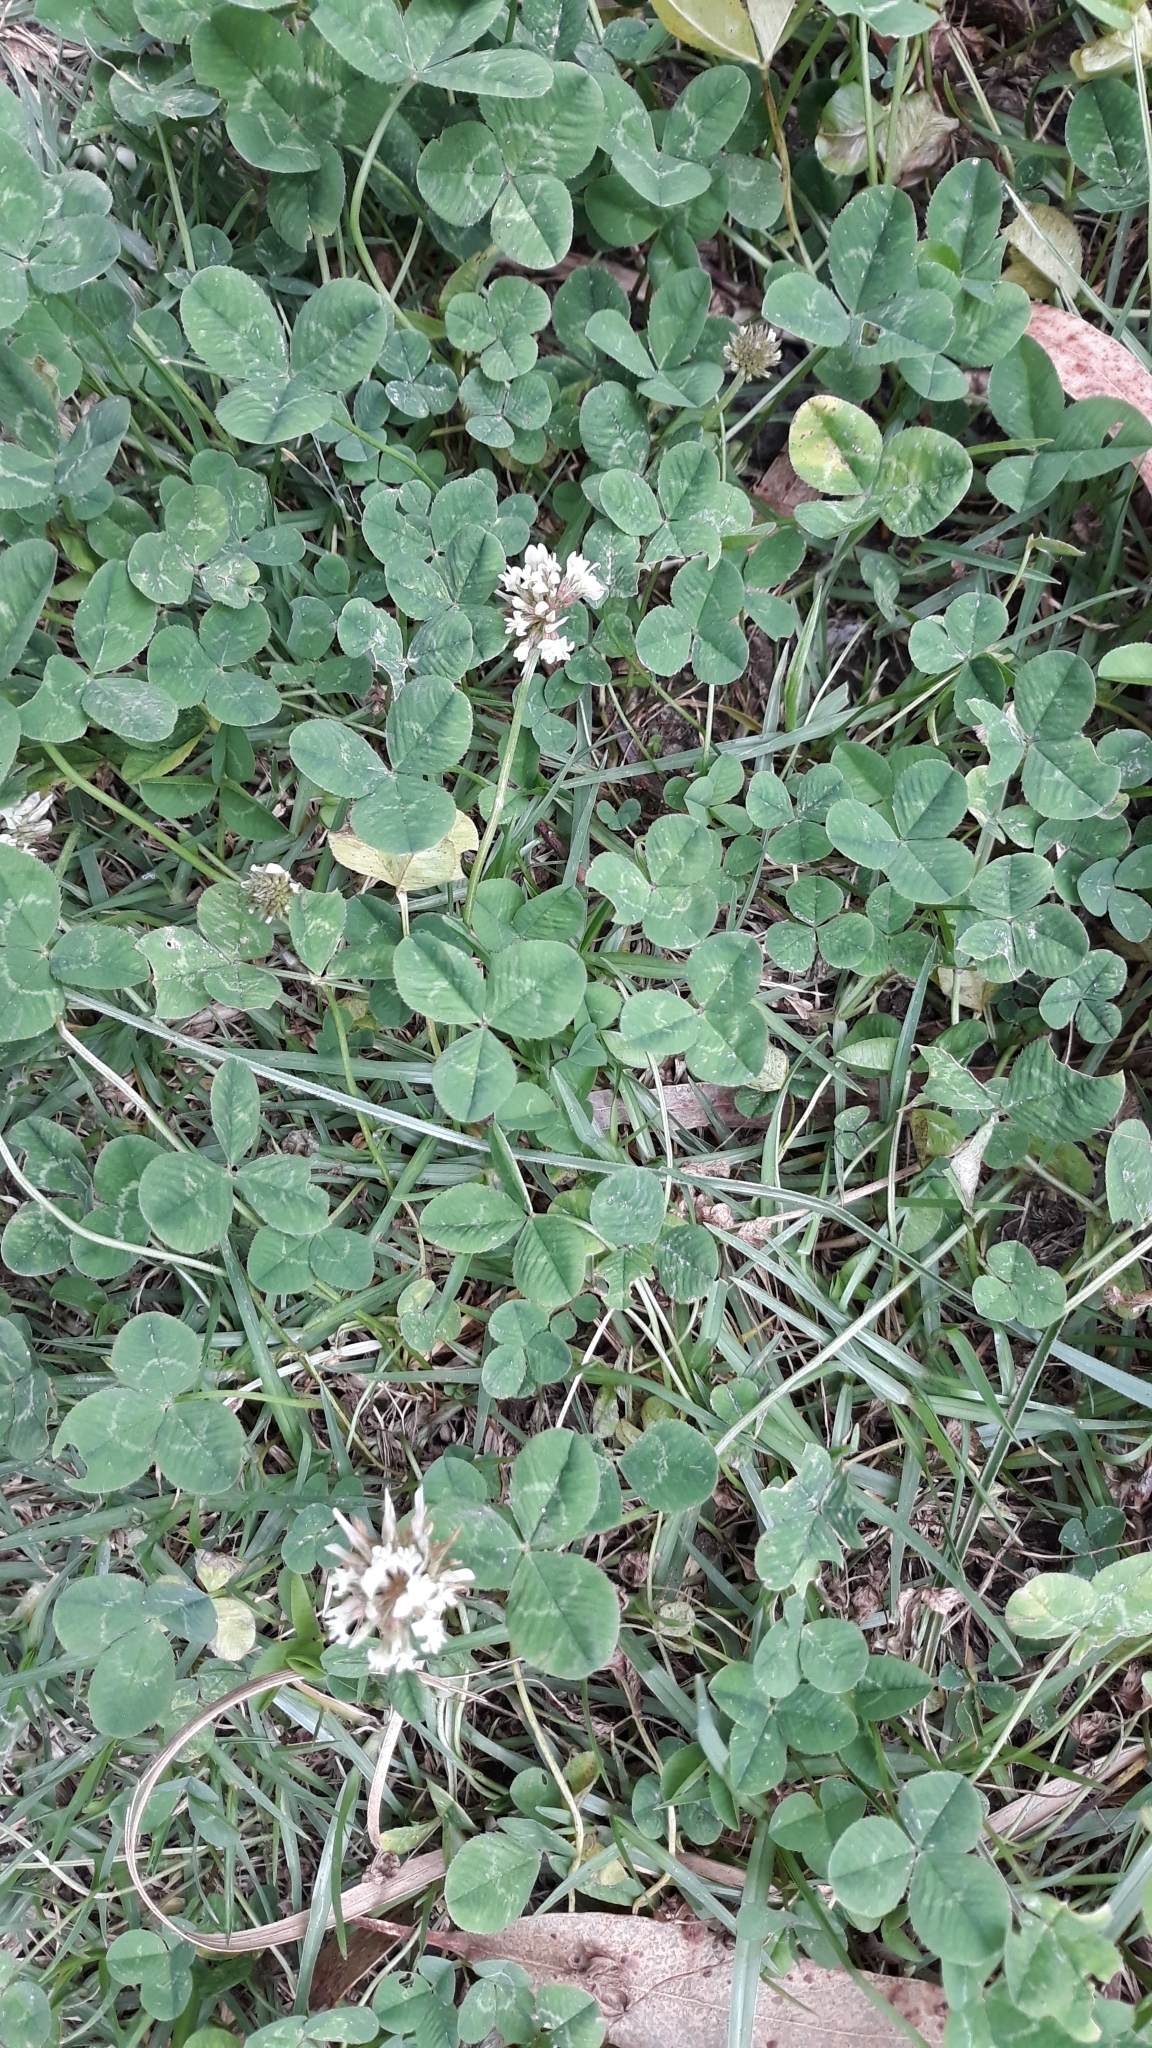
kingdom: Plantae
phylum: Tracheophyta
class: Magnoliopsida
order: Fabales
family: Fabaceae
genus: Trifolium
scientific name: Trifolium repens
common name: White clover
